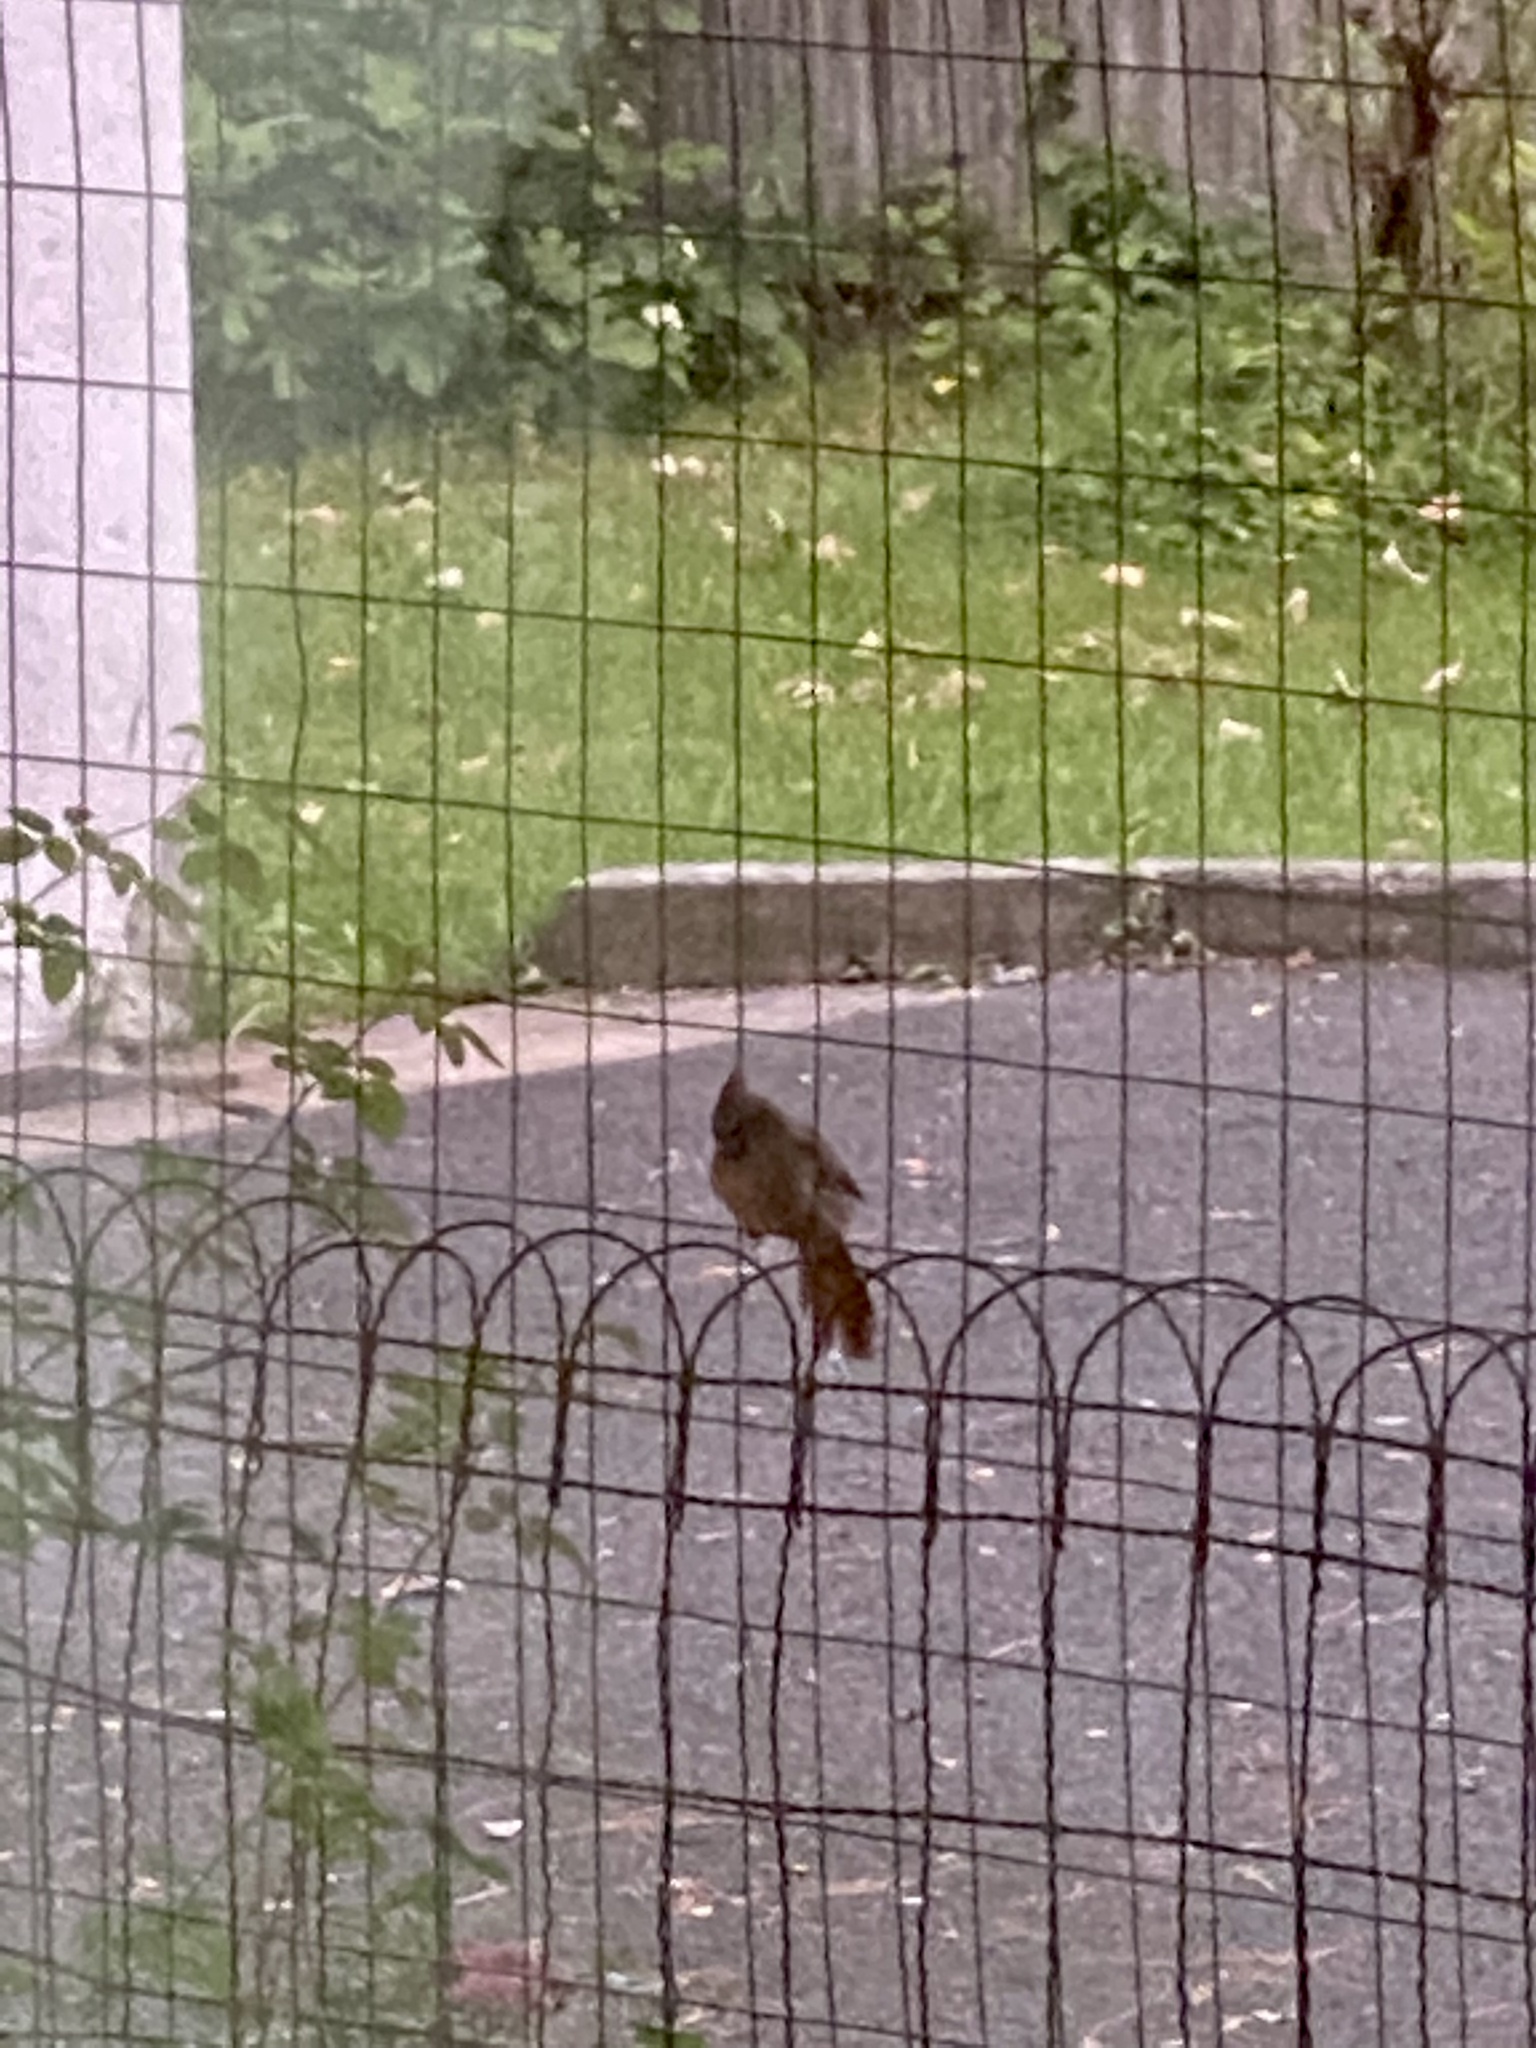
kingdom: Animalia
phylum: Chordata
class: Aves
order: Passeriformes
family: Cardinalidae
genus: Cardinalis
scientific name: Cardinalis cardinalis
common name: Northern cardinal
